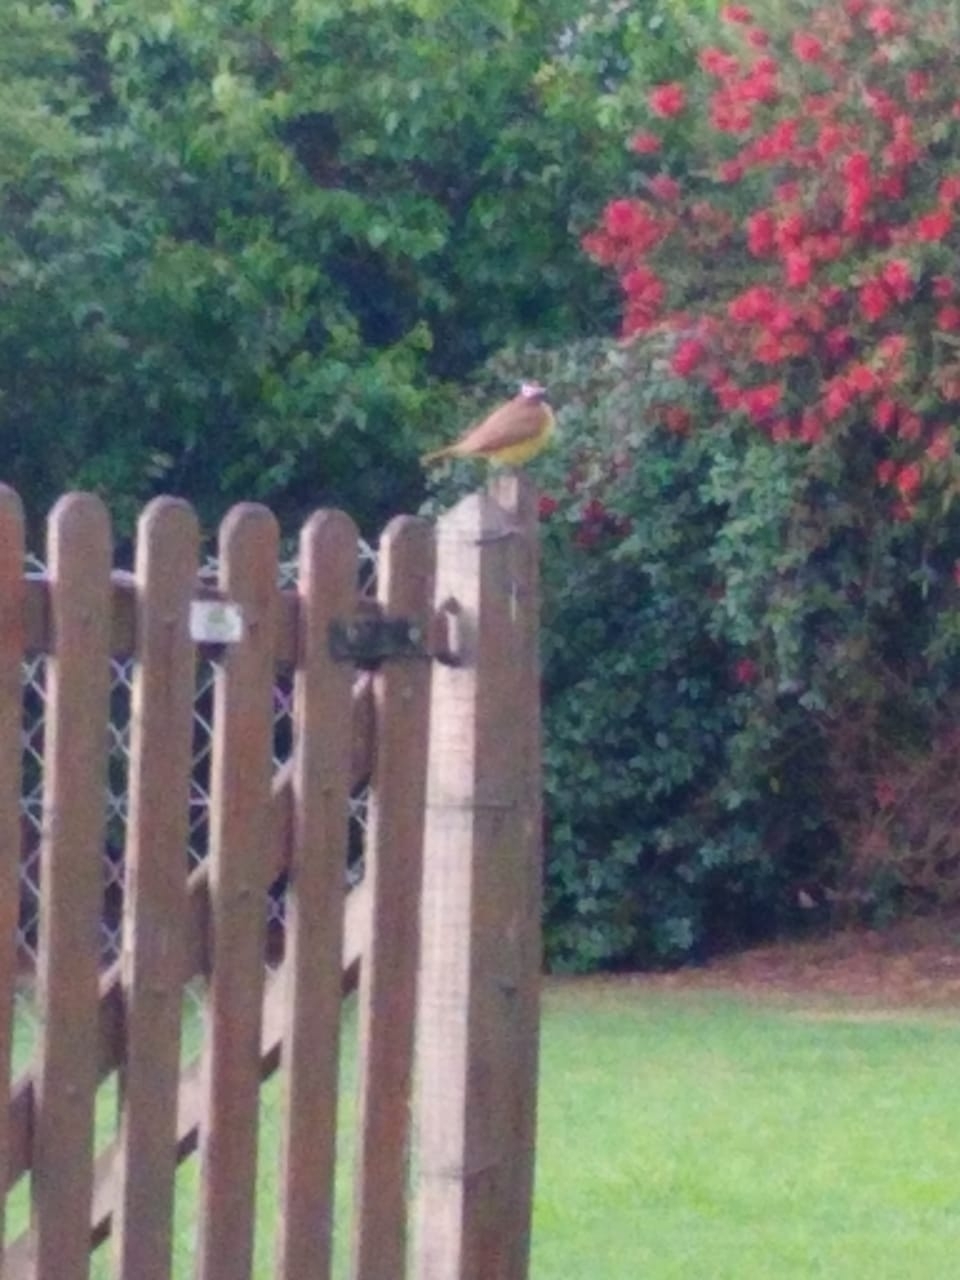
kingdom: Animalia
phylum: Chordata
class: Aves
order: Passeriformes
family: Tyrannidae
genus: Pitangus
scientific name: Pitangus sulphuratus
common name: Great kiskadee
